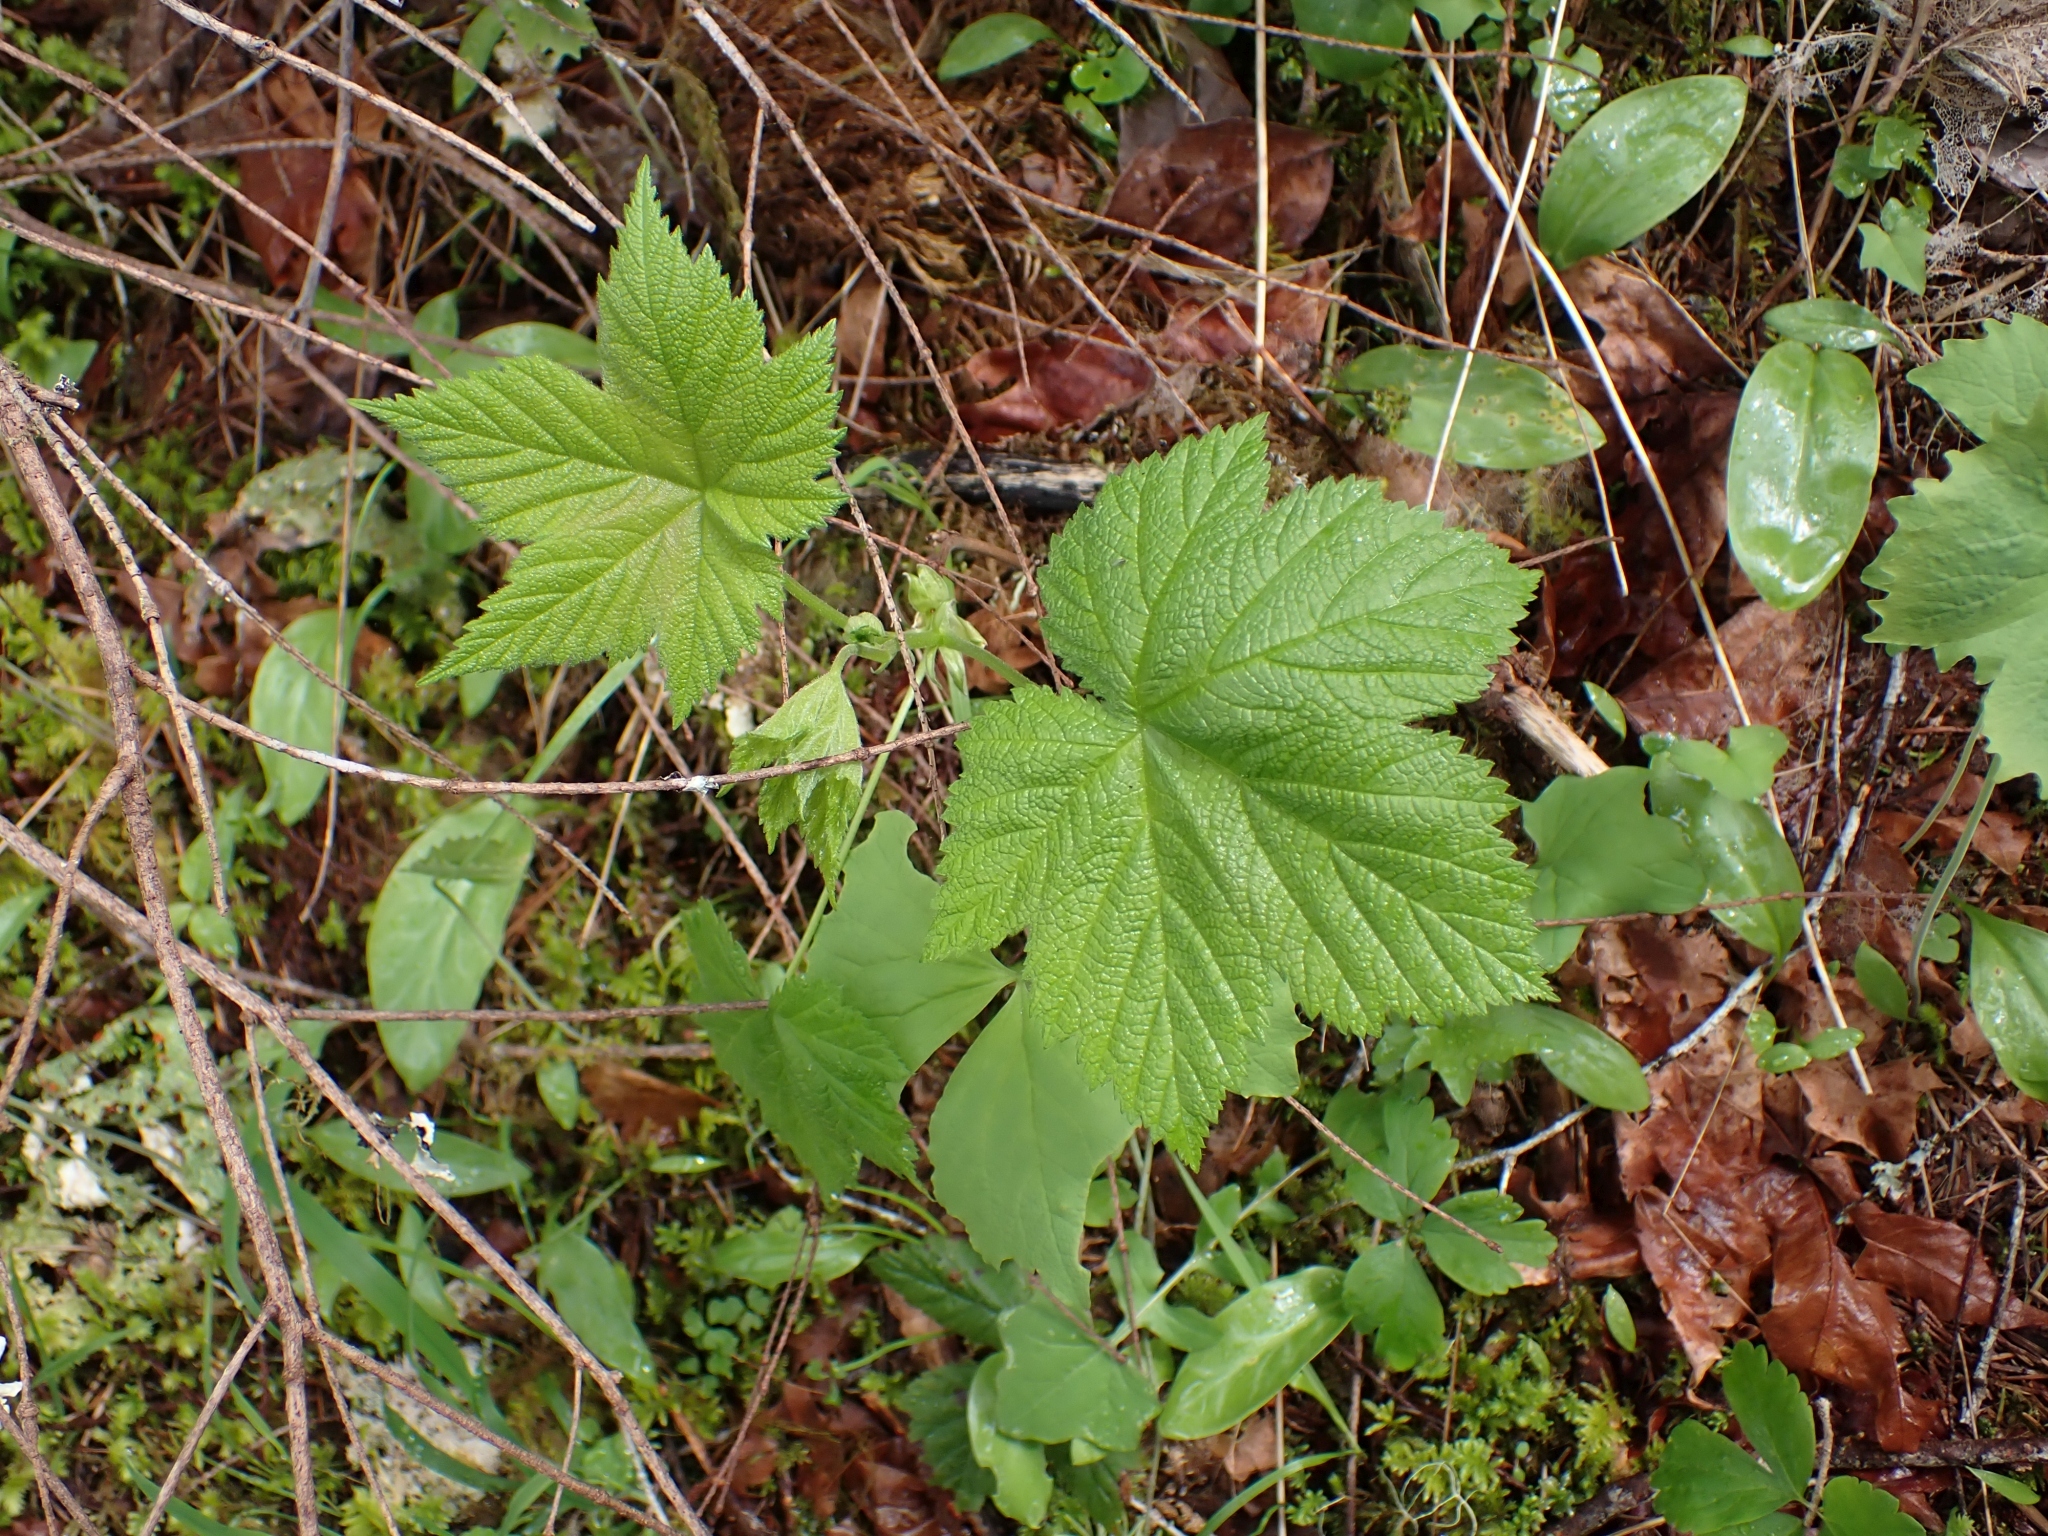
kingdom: Plantae
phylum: Tracheophyta
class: Magnoliopsida
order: Rosales
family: Rosaceae
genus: Rubus
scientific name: Rubus parviflorus
